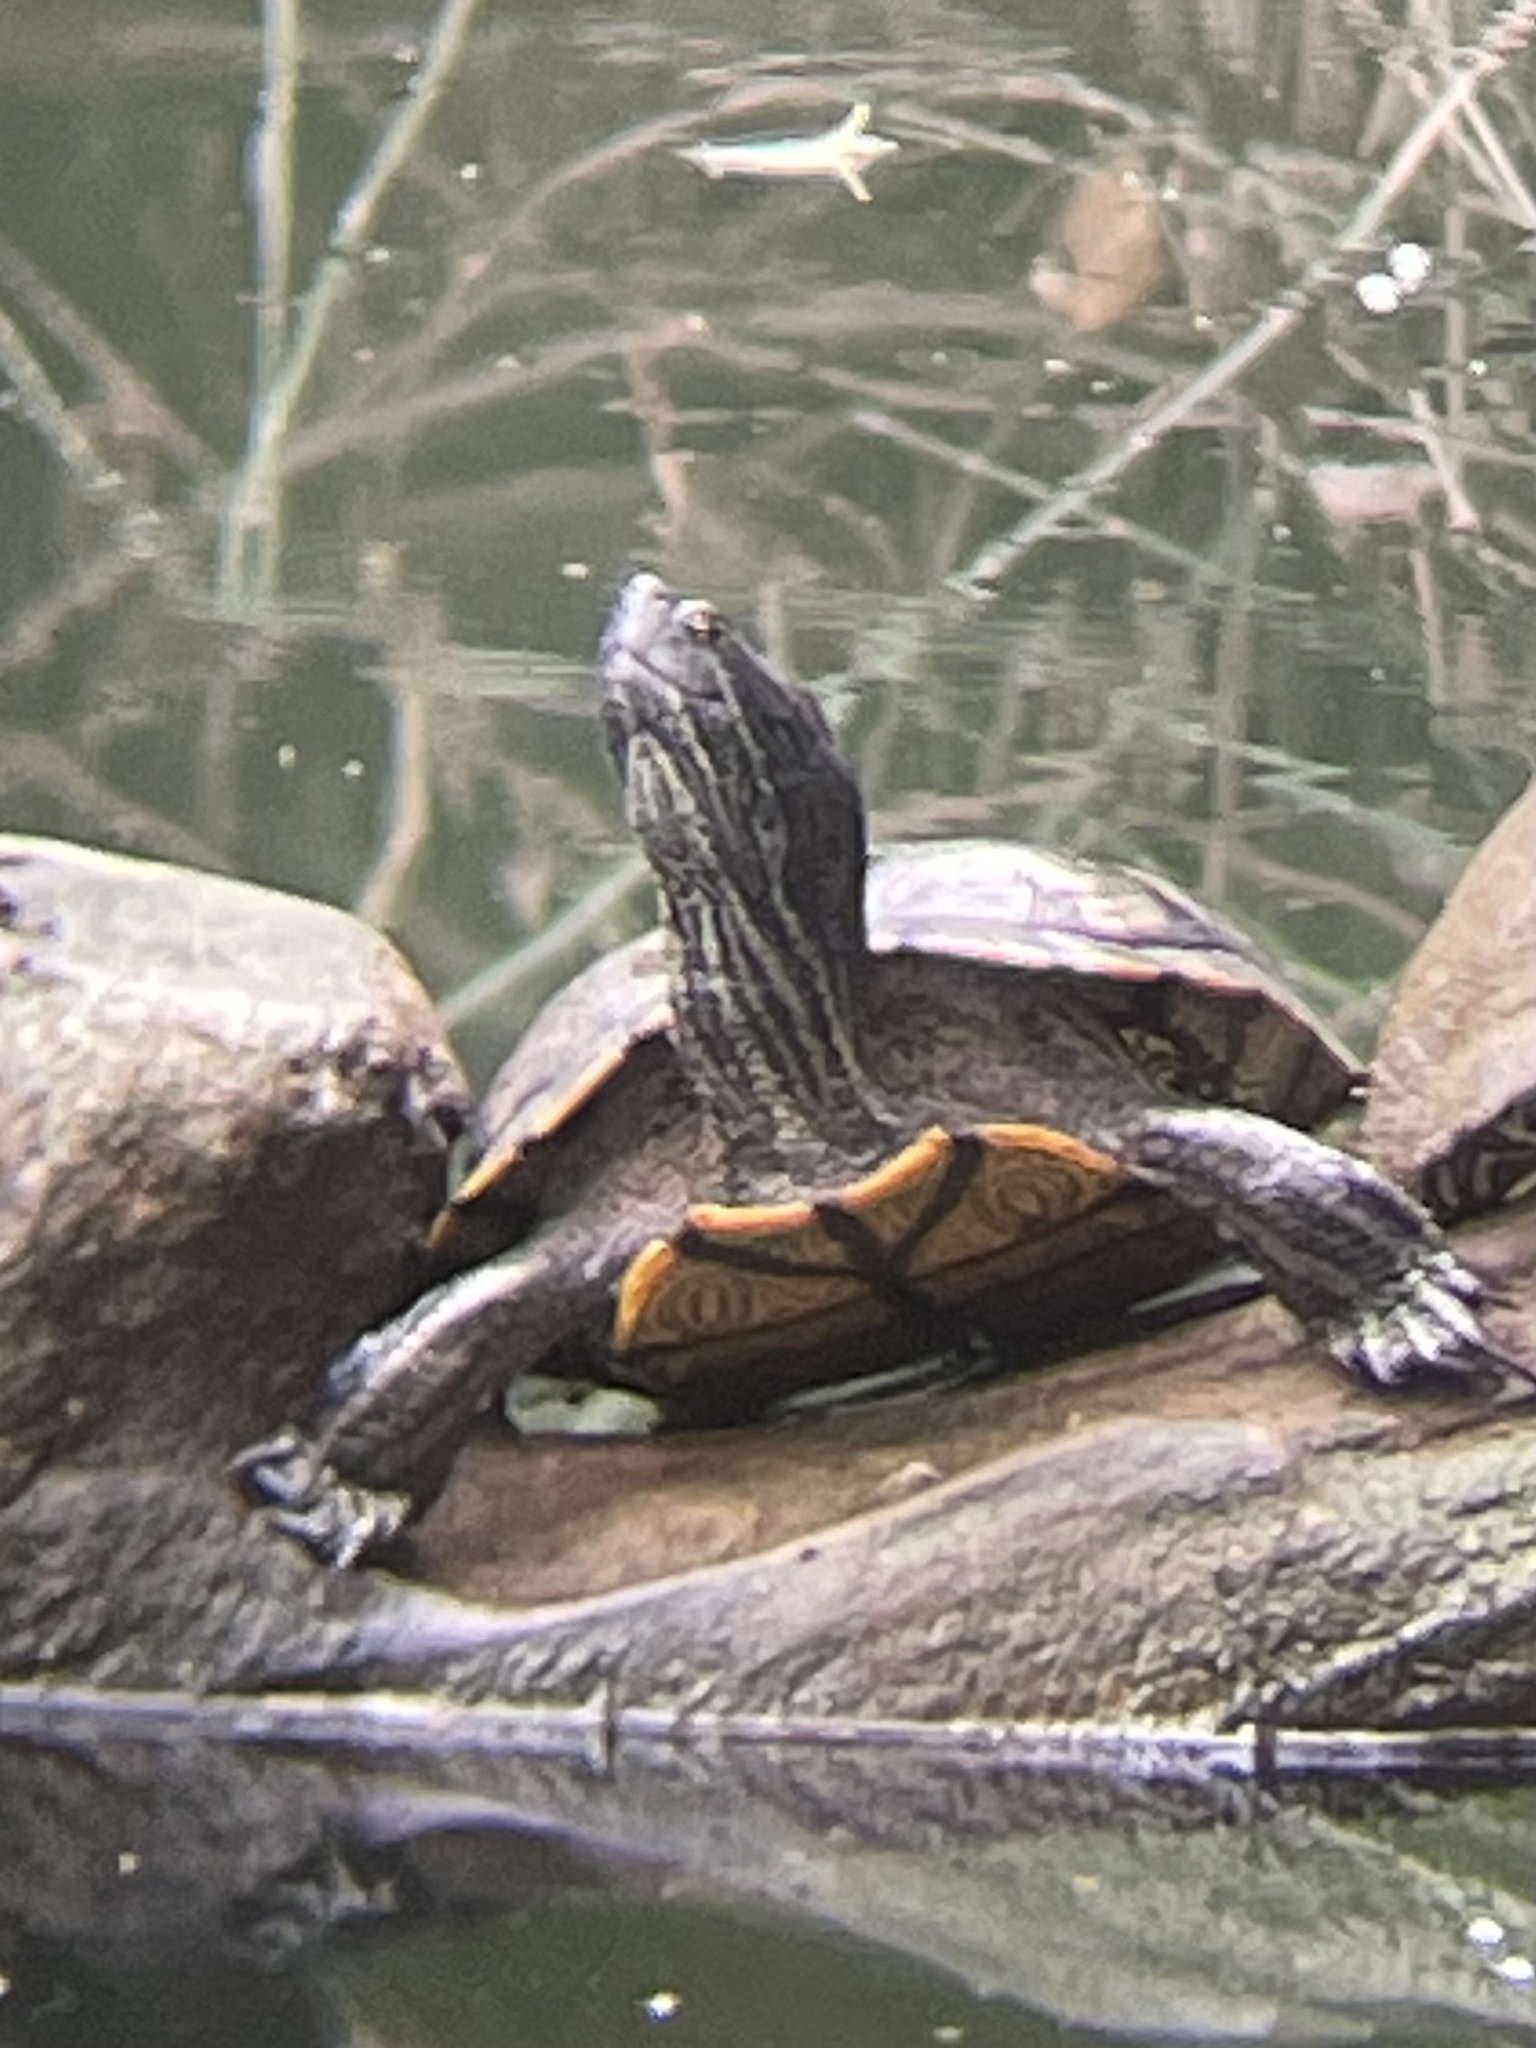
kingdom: Animalia
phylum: Chordata
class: Testudines
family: Emydidae
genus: Trachemys
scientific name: Trachemys scripta
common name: Slider
